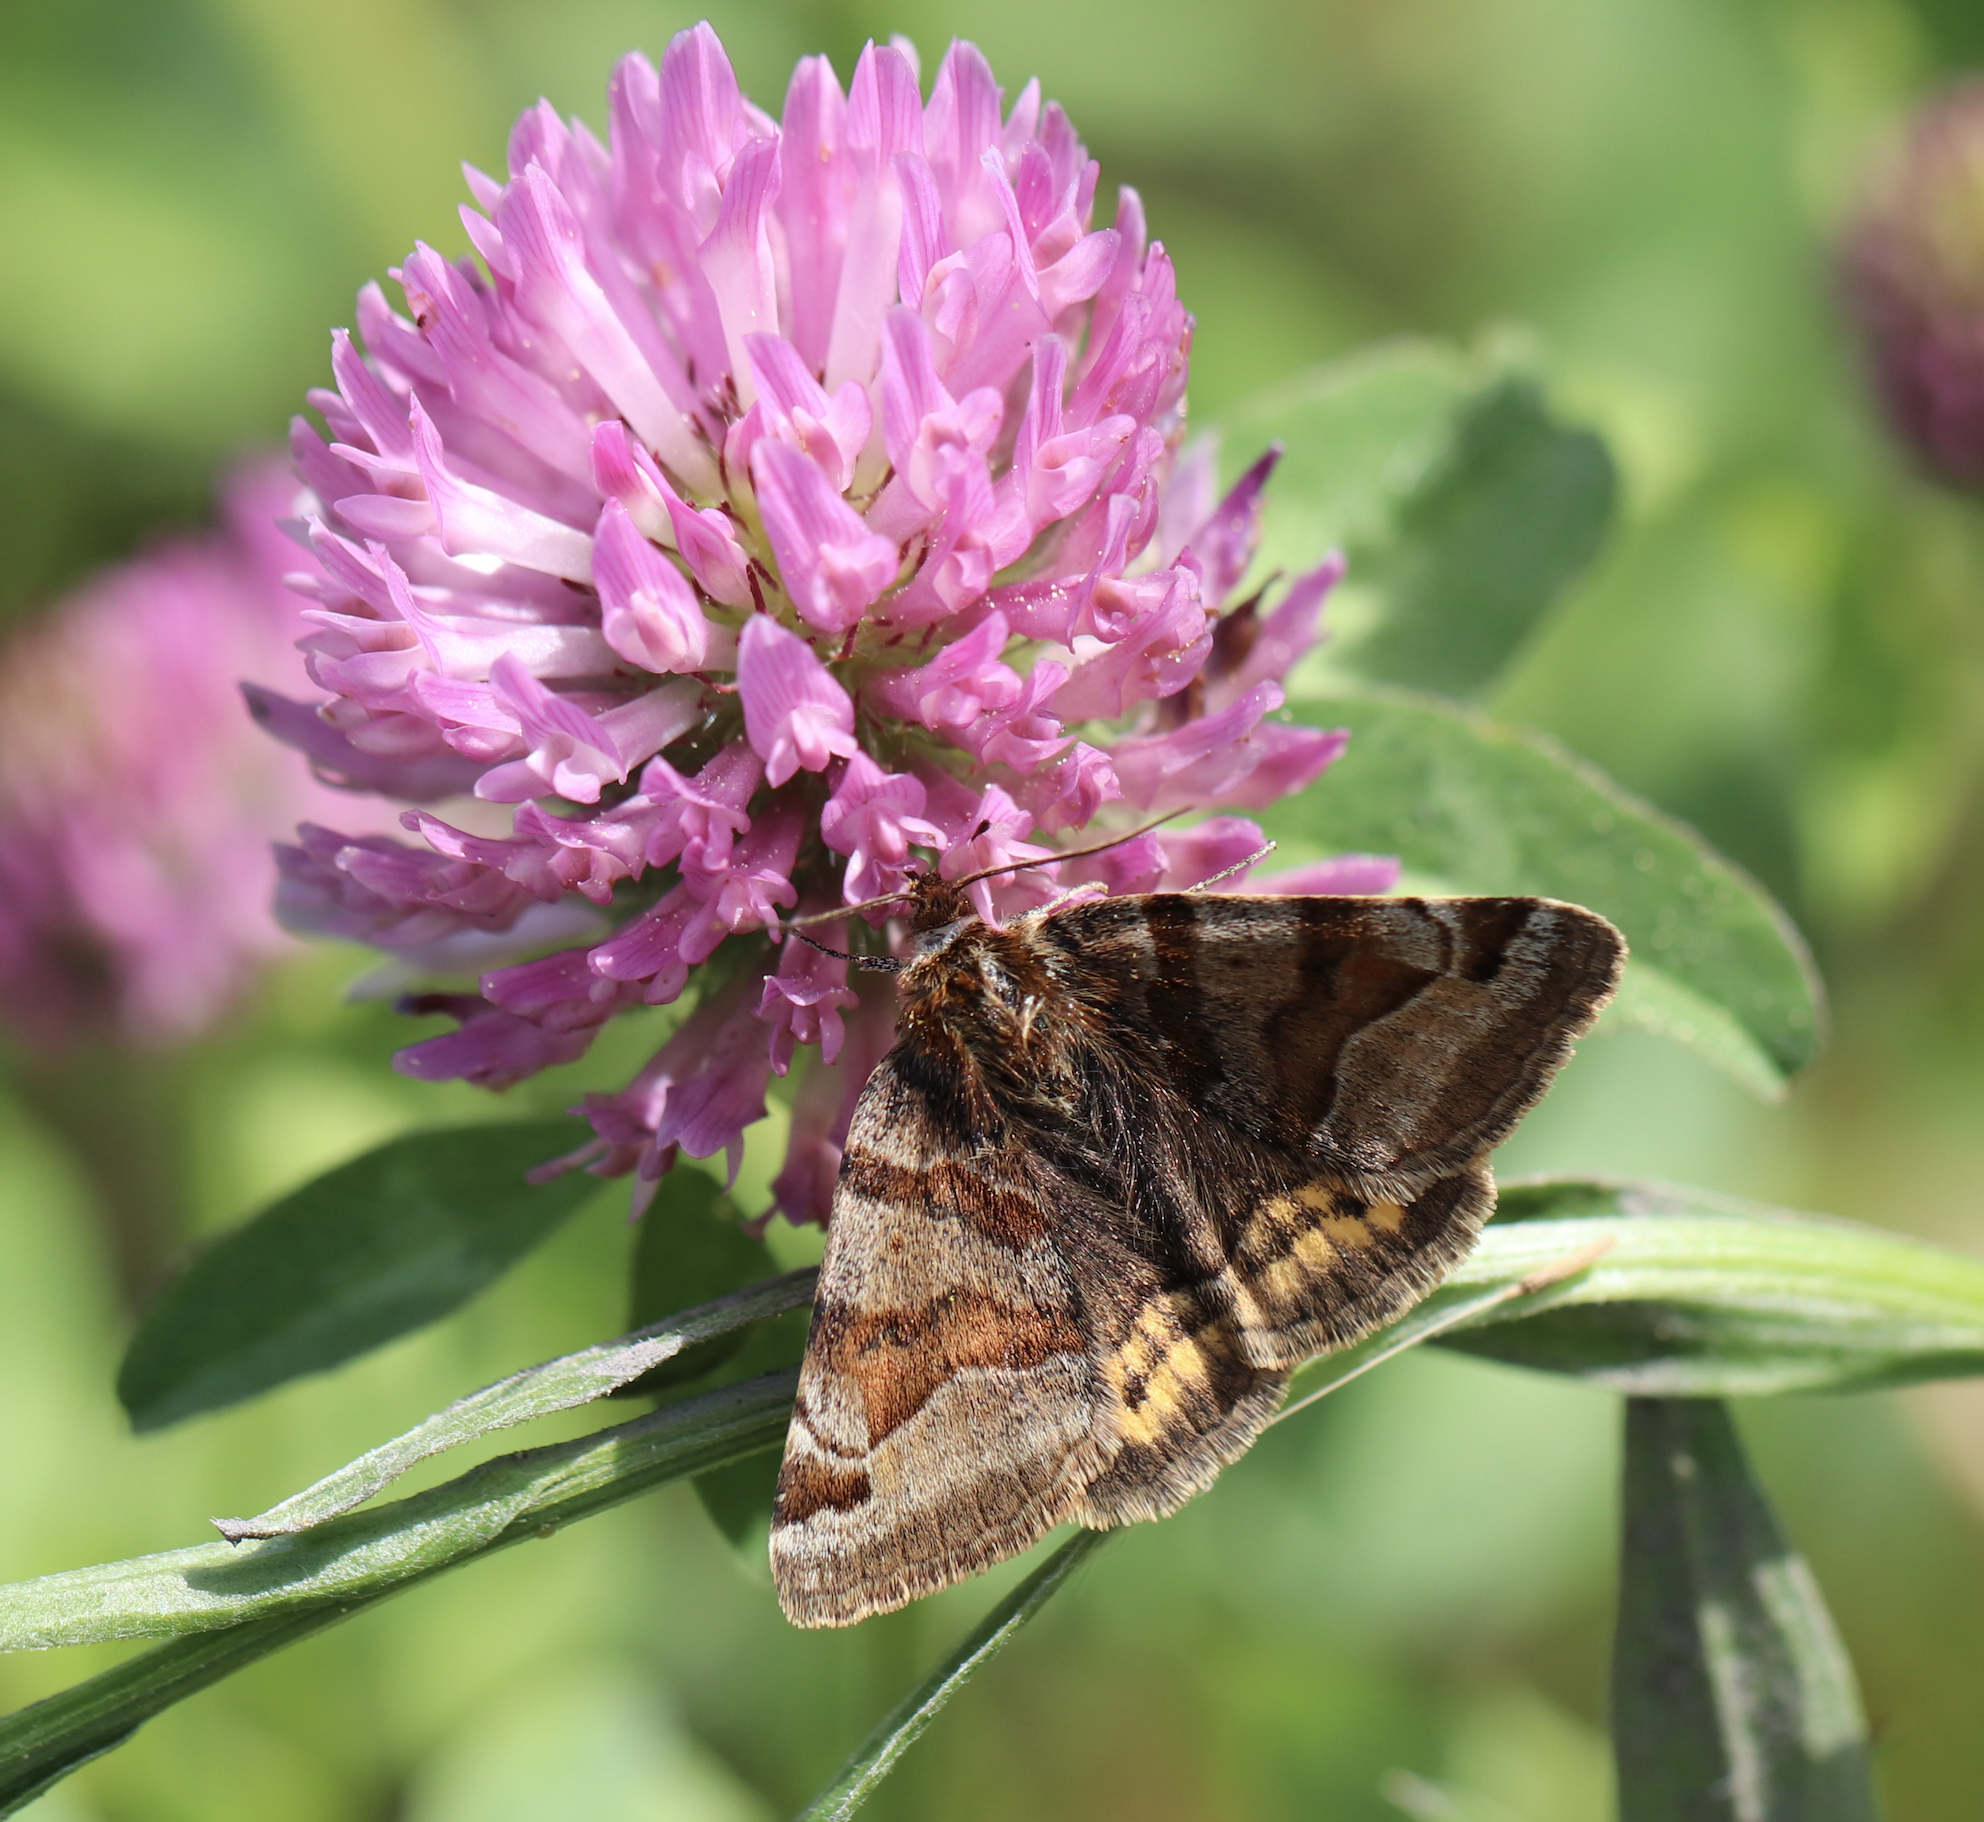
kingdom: Animalia
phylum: Arthropoda
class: Insecta
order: Lepidoptera
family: Erebidae
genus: Euclidia
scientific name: Euclidia glyphica
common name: Burnet companion
